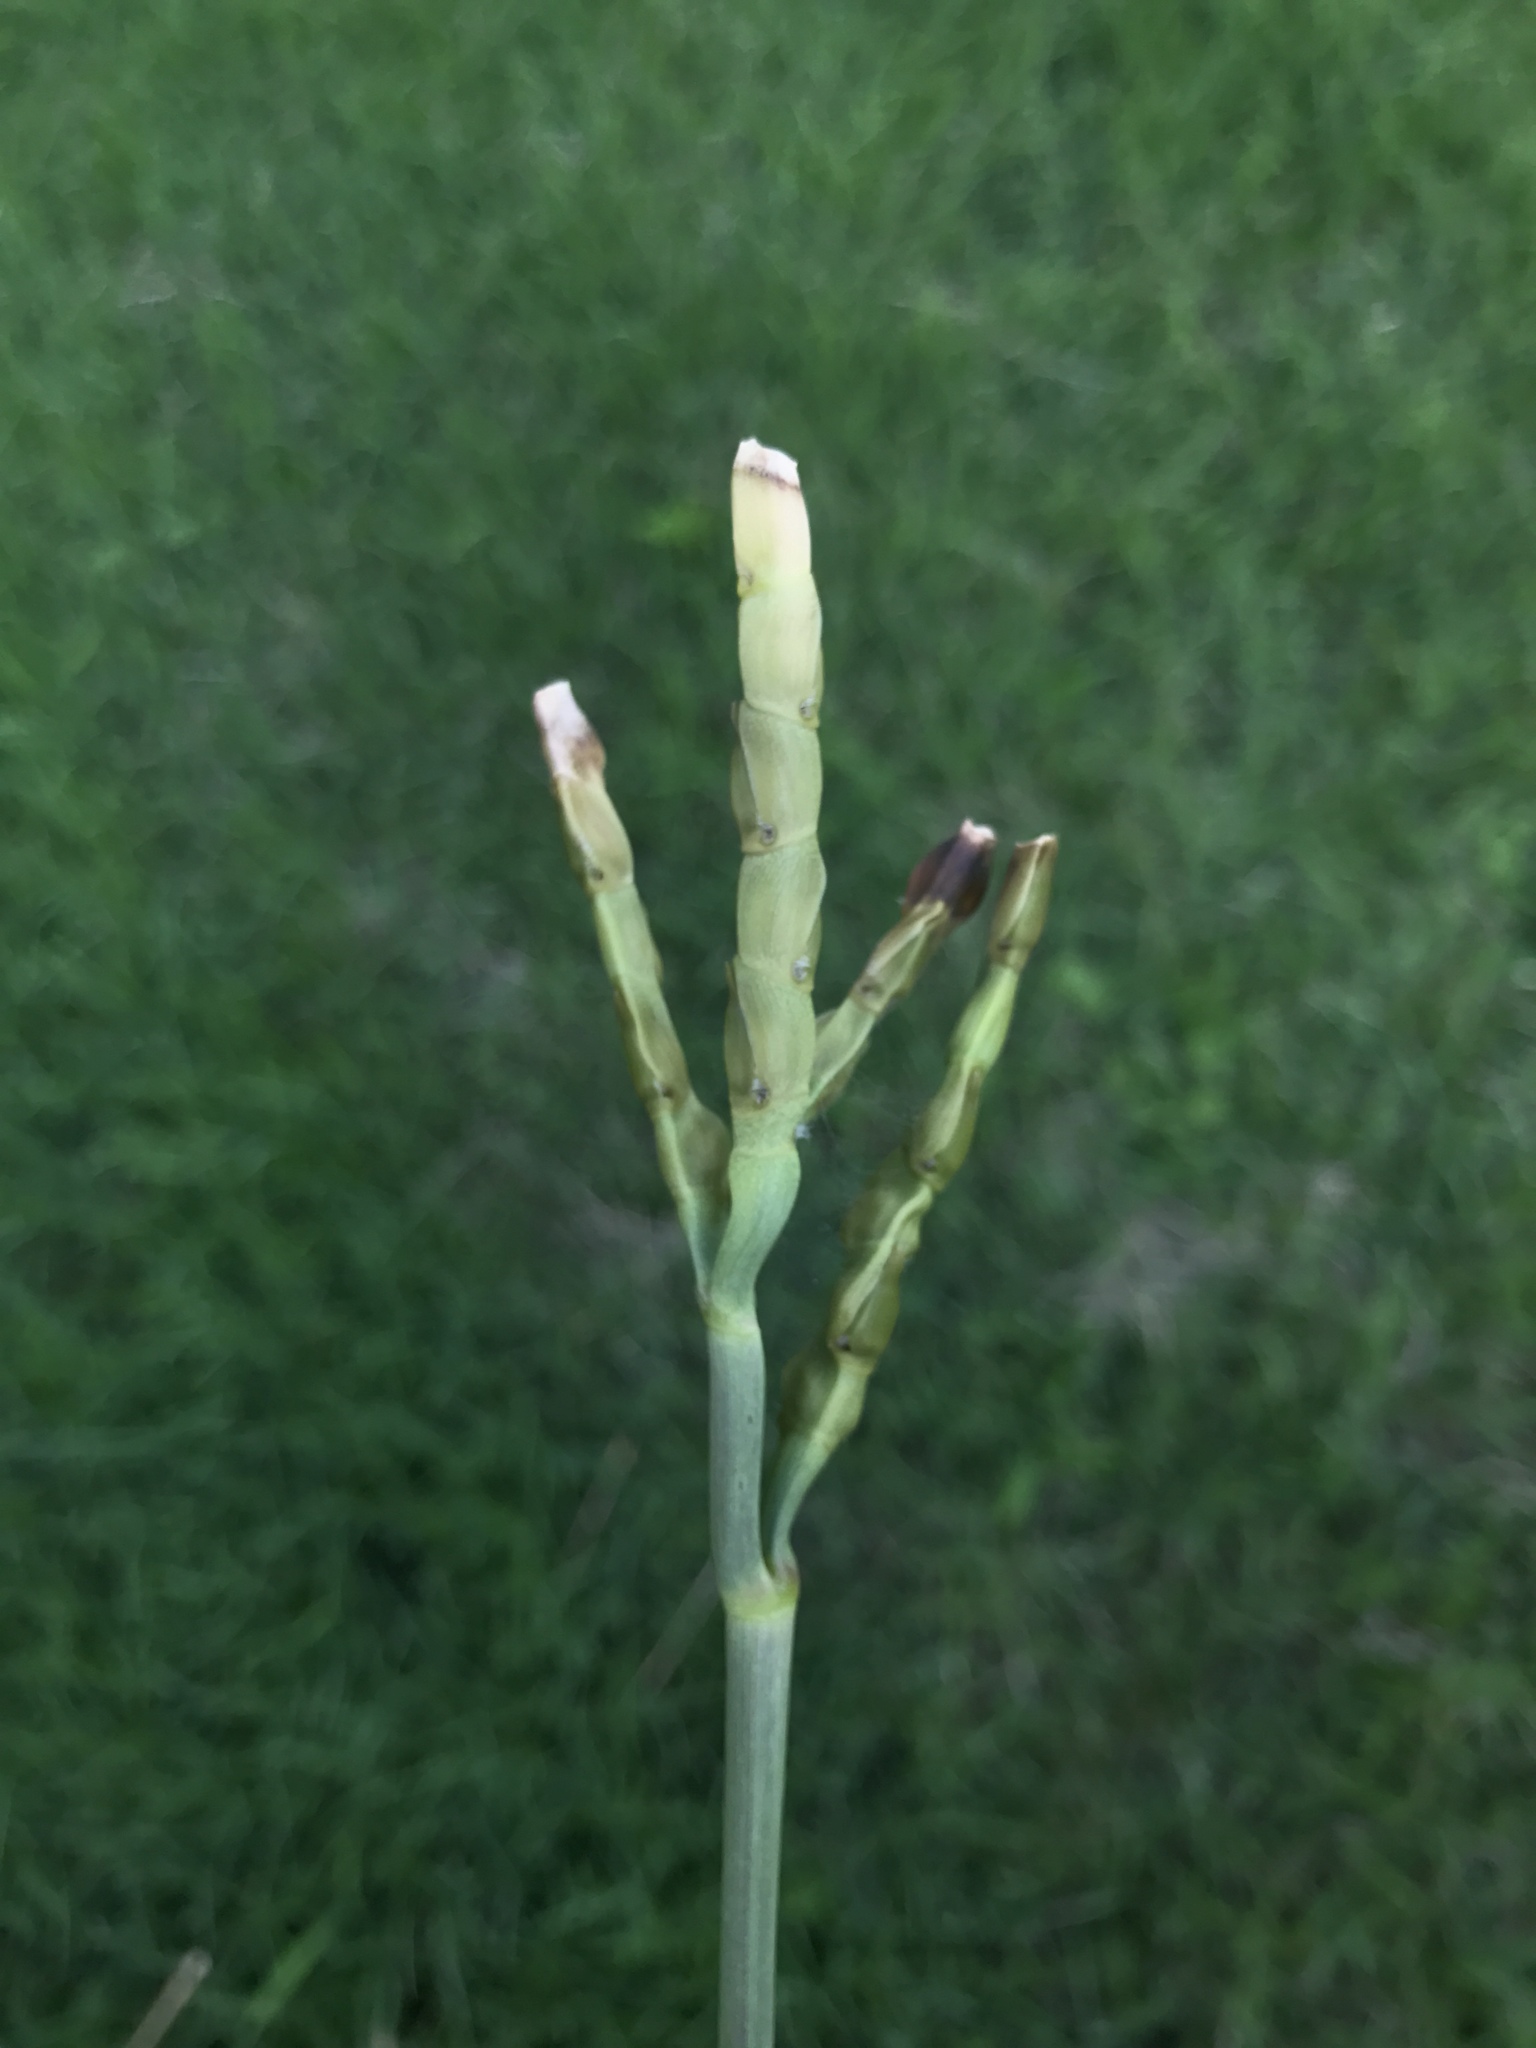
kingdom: Plantae
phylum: Tracheophyta
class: Liliopsida
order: Poales
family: Poaceae
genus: Tripsacum
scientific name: Tripsacum dactyloides
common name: Buffalo-grass
